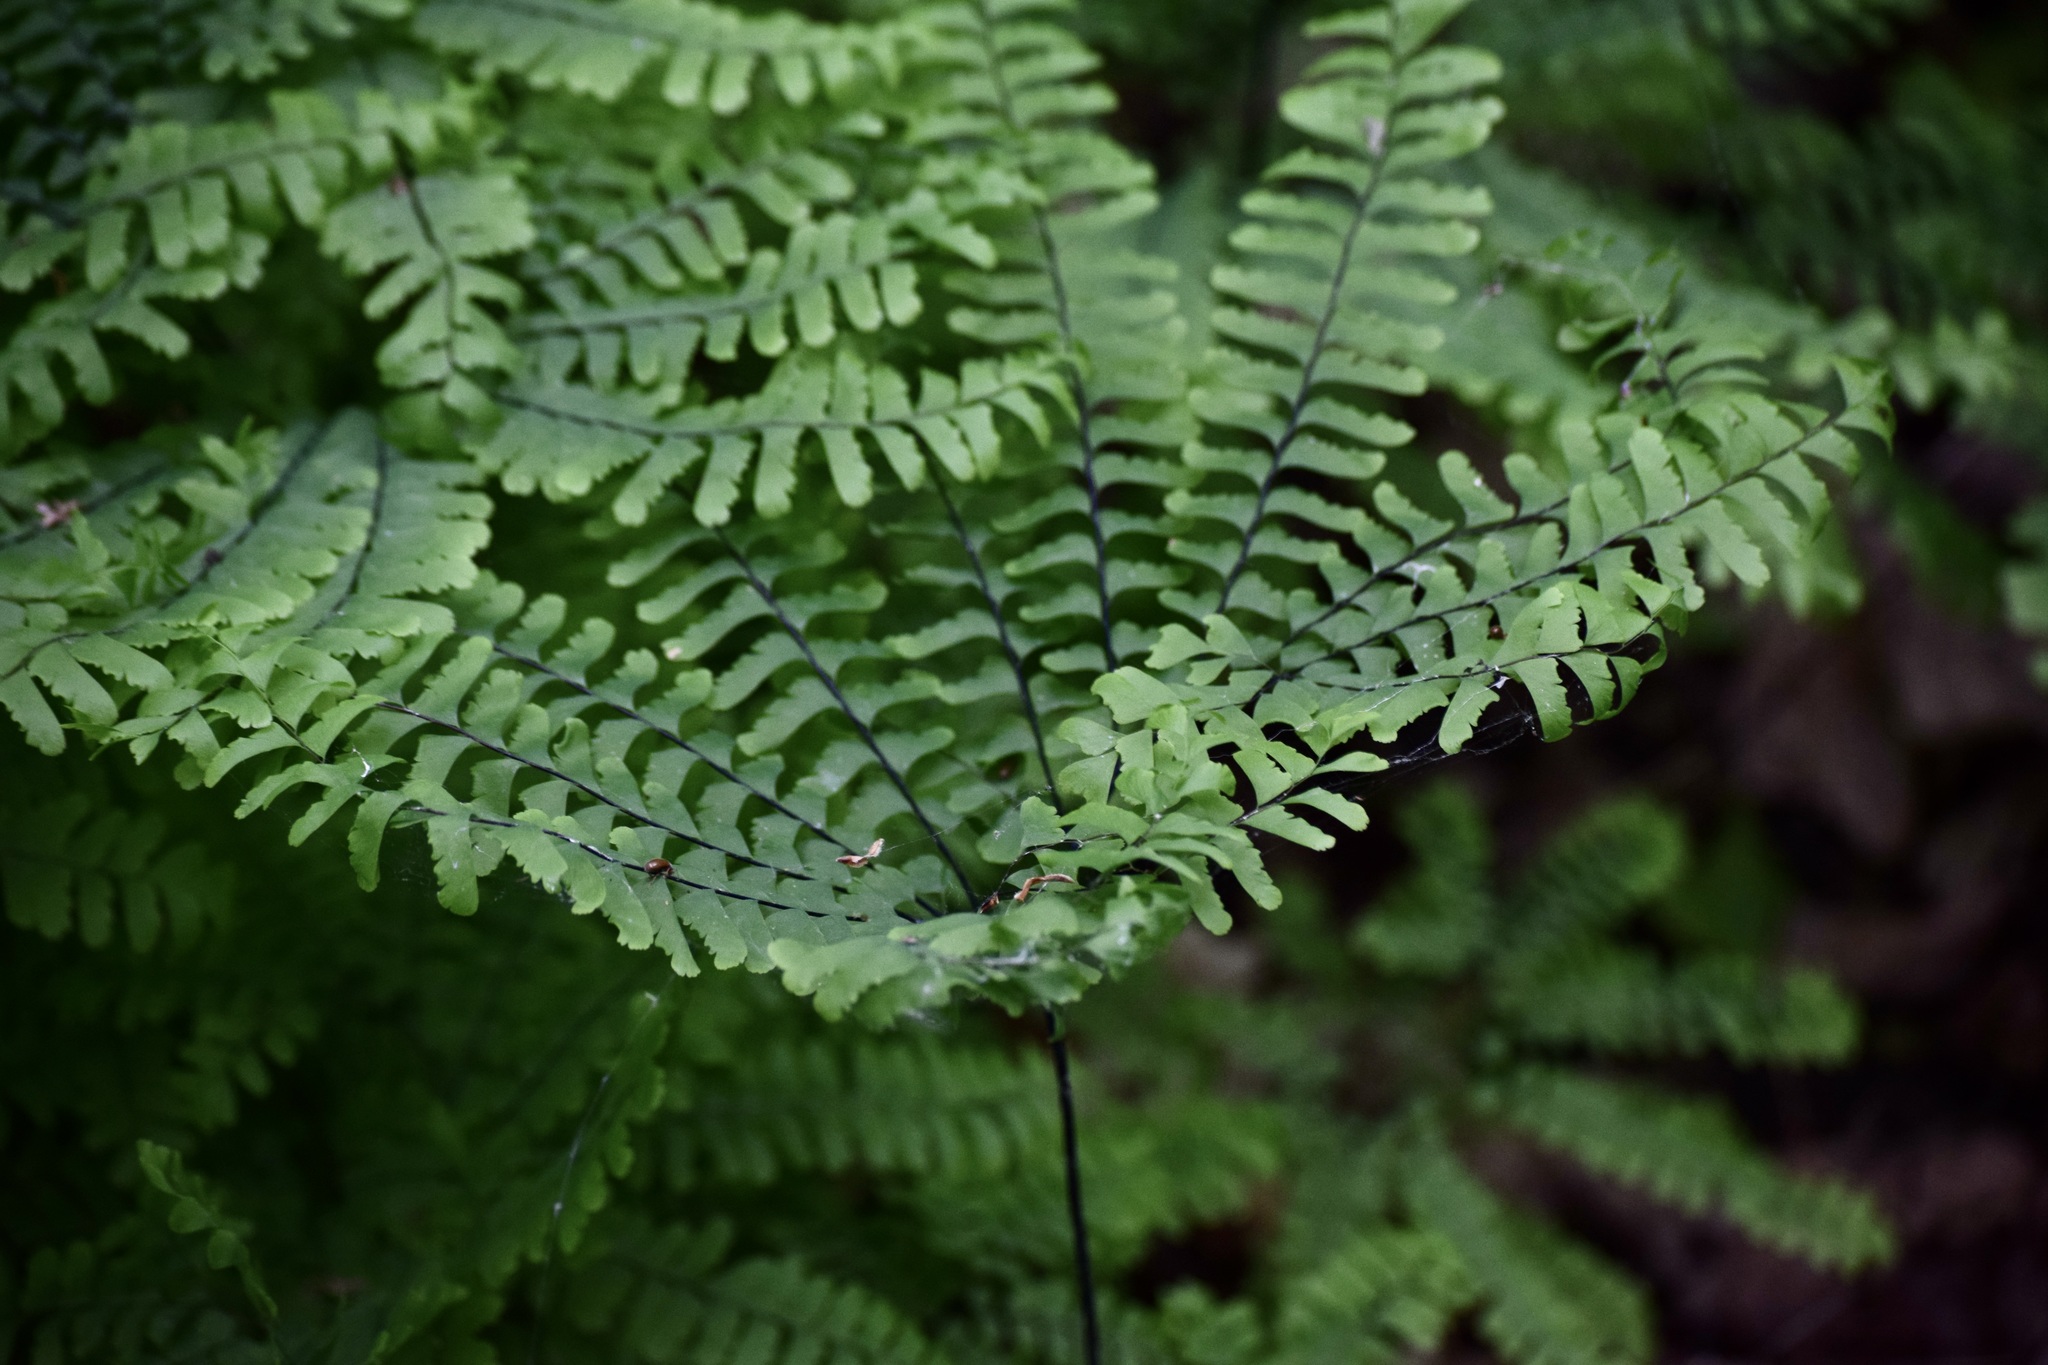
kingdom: Plantae
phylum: Tracheophyta
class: Polypodiopsida
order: Polypodiales
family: Pteridaceae
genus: Adiantum
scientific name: Adiantum pedatum
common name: Five-finger fern
